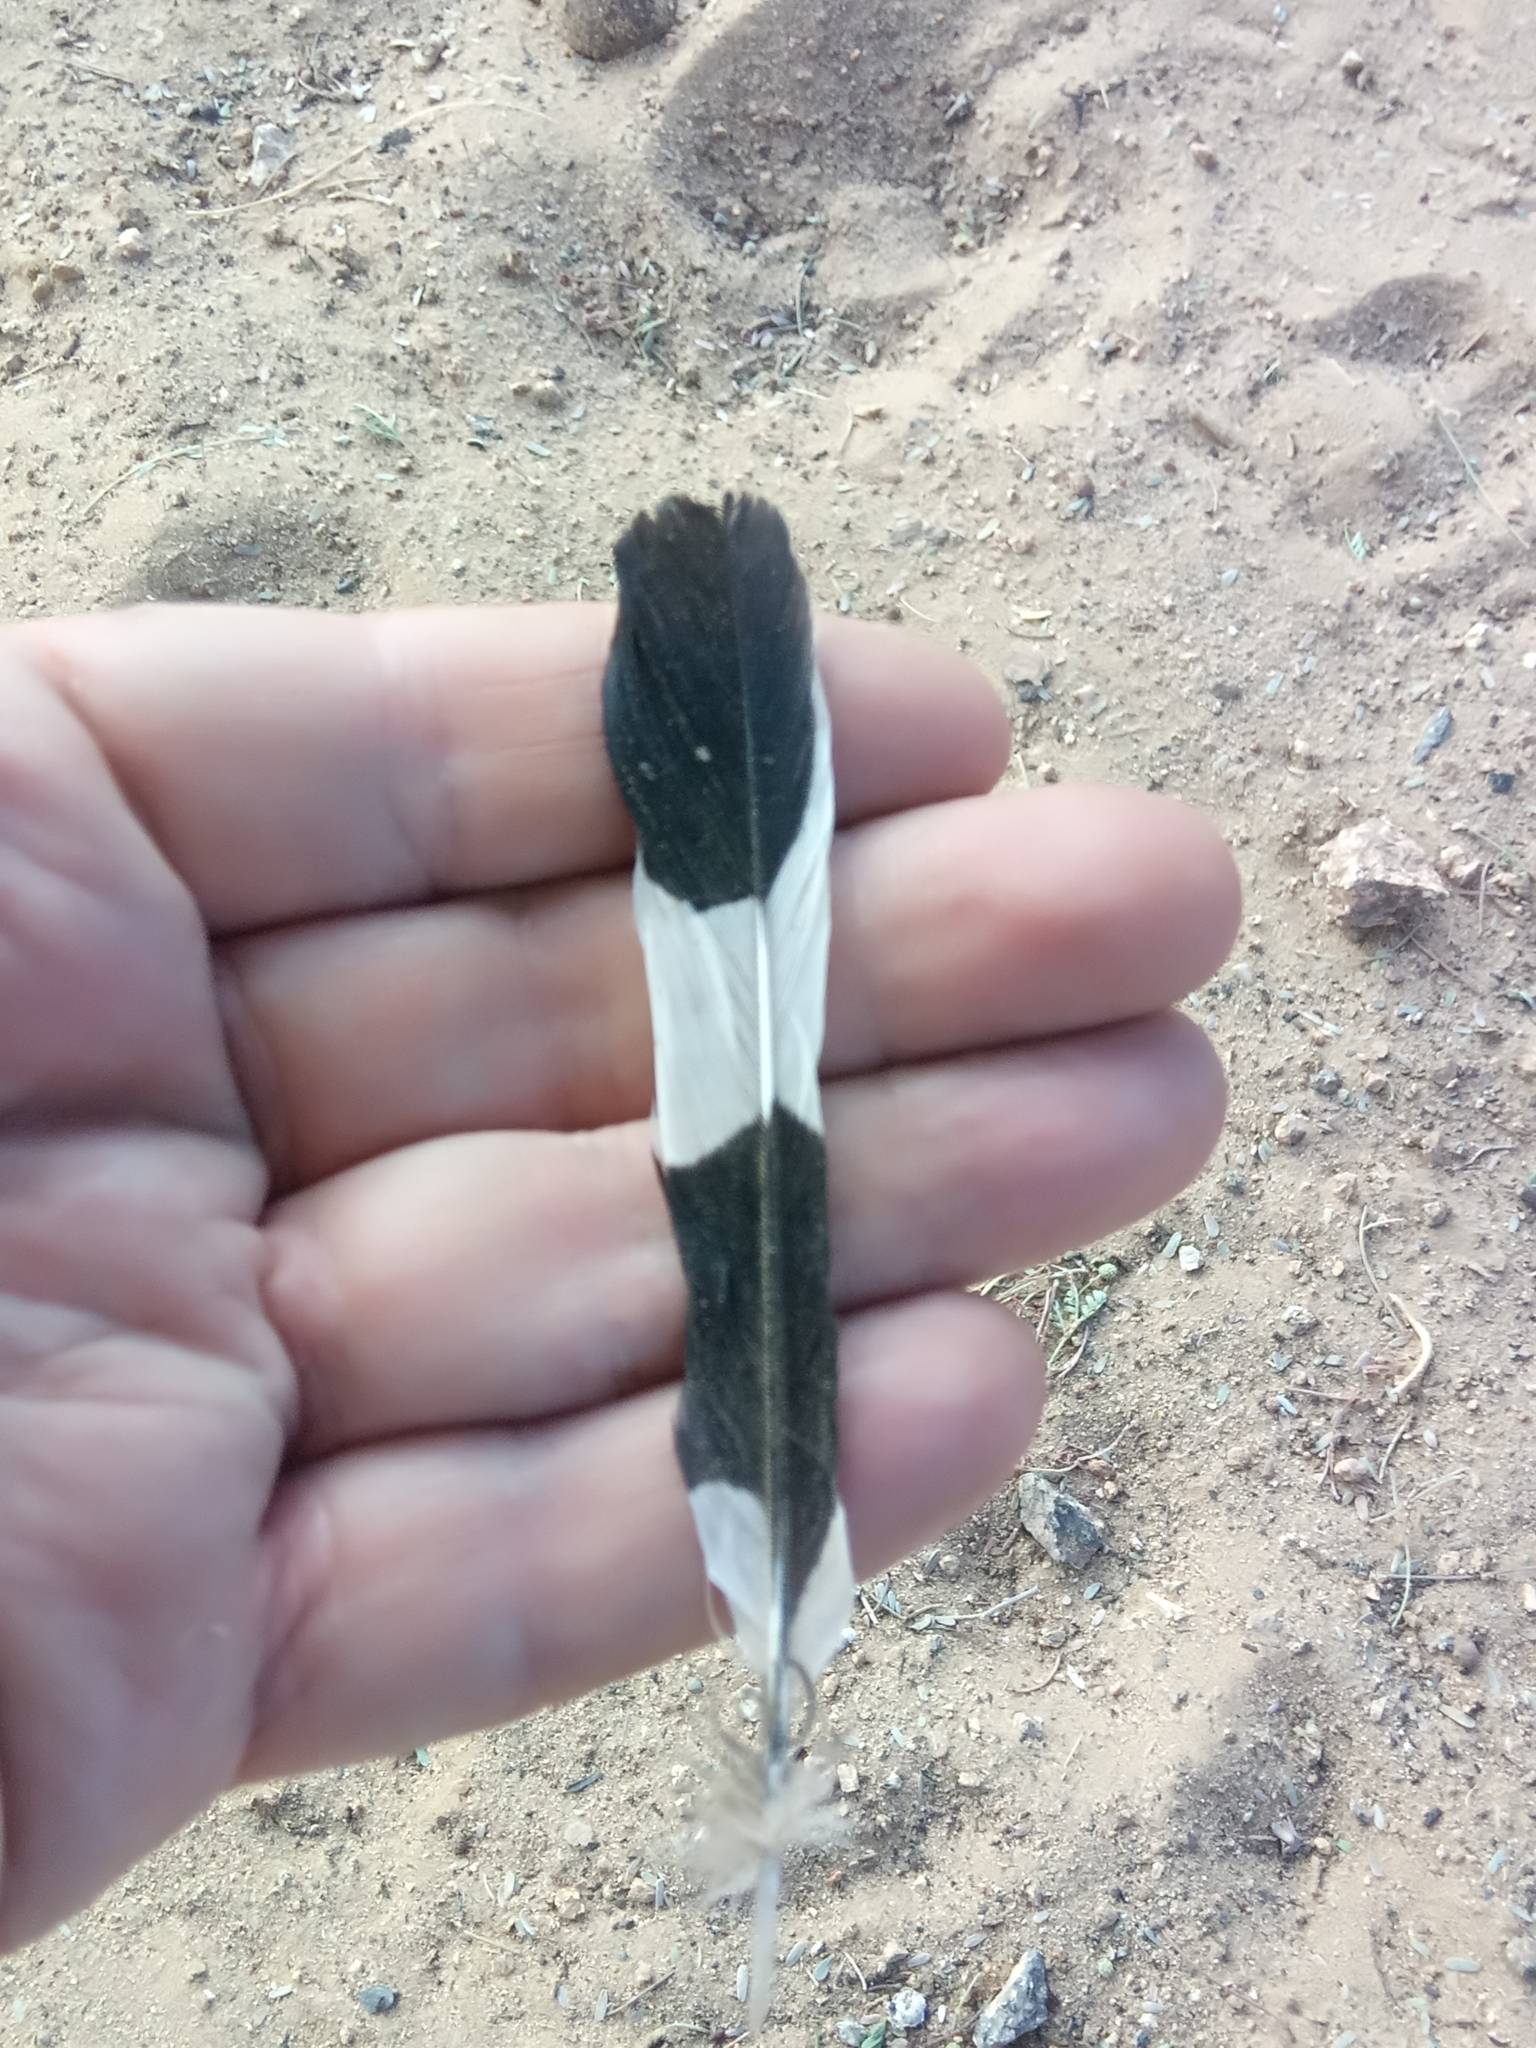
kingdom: Animalia
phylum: Chordata
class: Aves
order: Bucerotiformes
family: Upupidae
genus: Upupa
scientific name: Upupa epops
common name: Eurasian hoopoe
